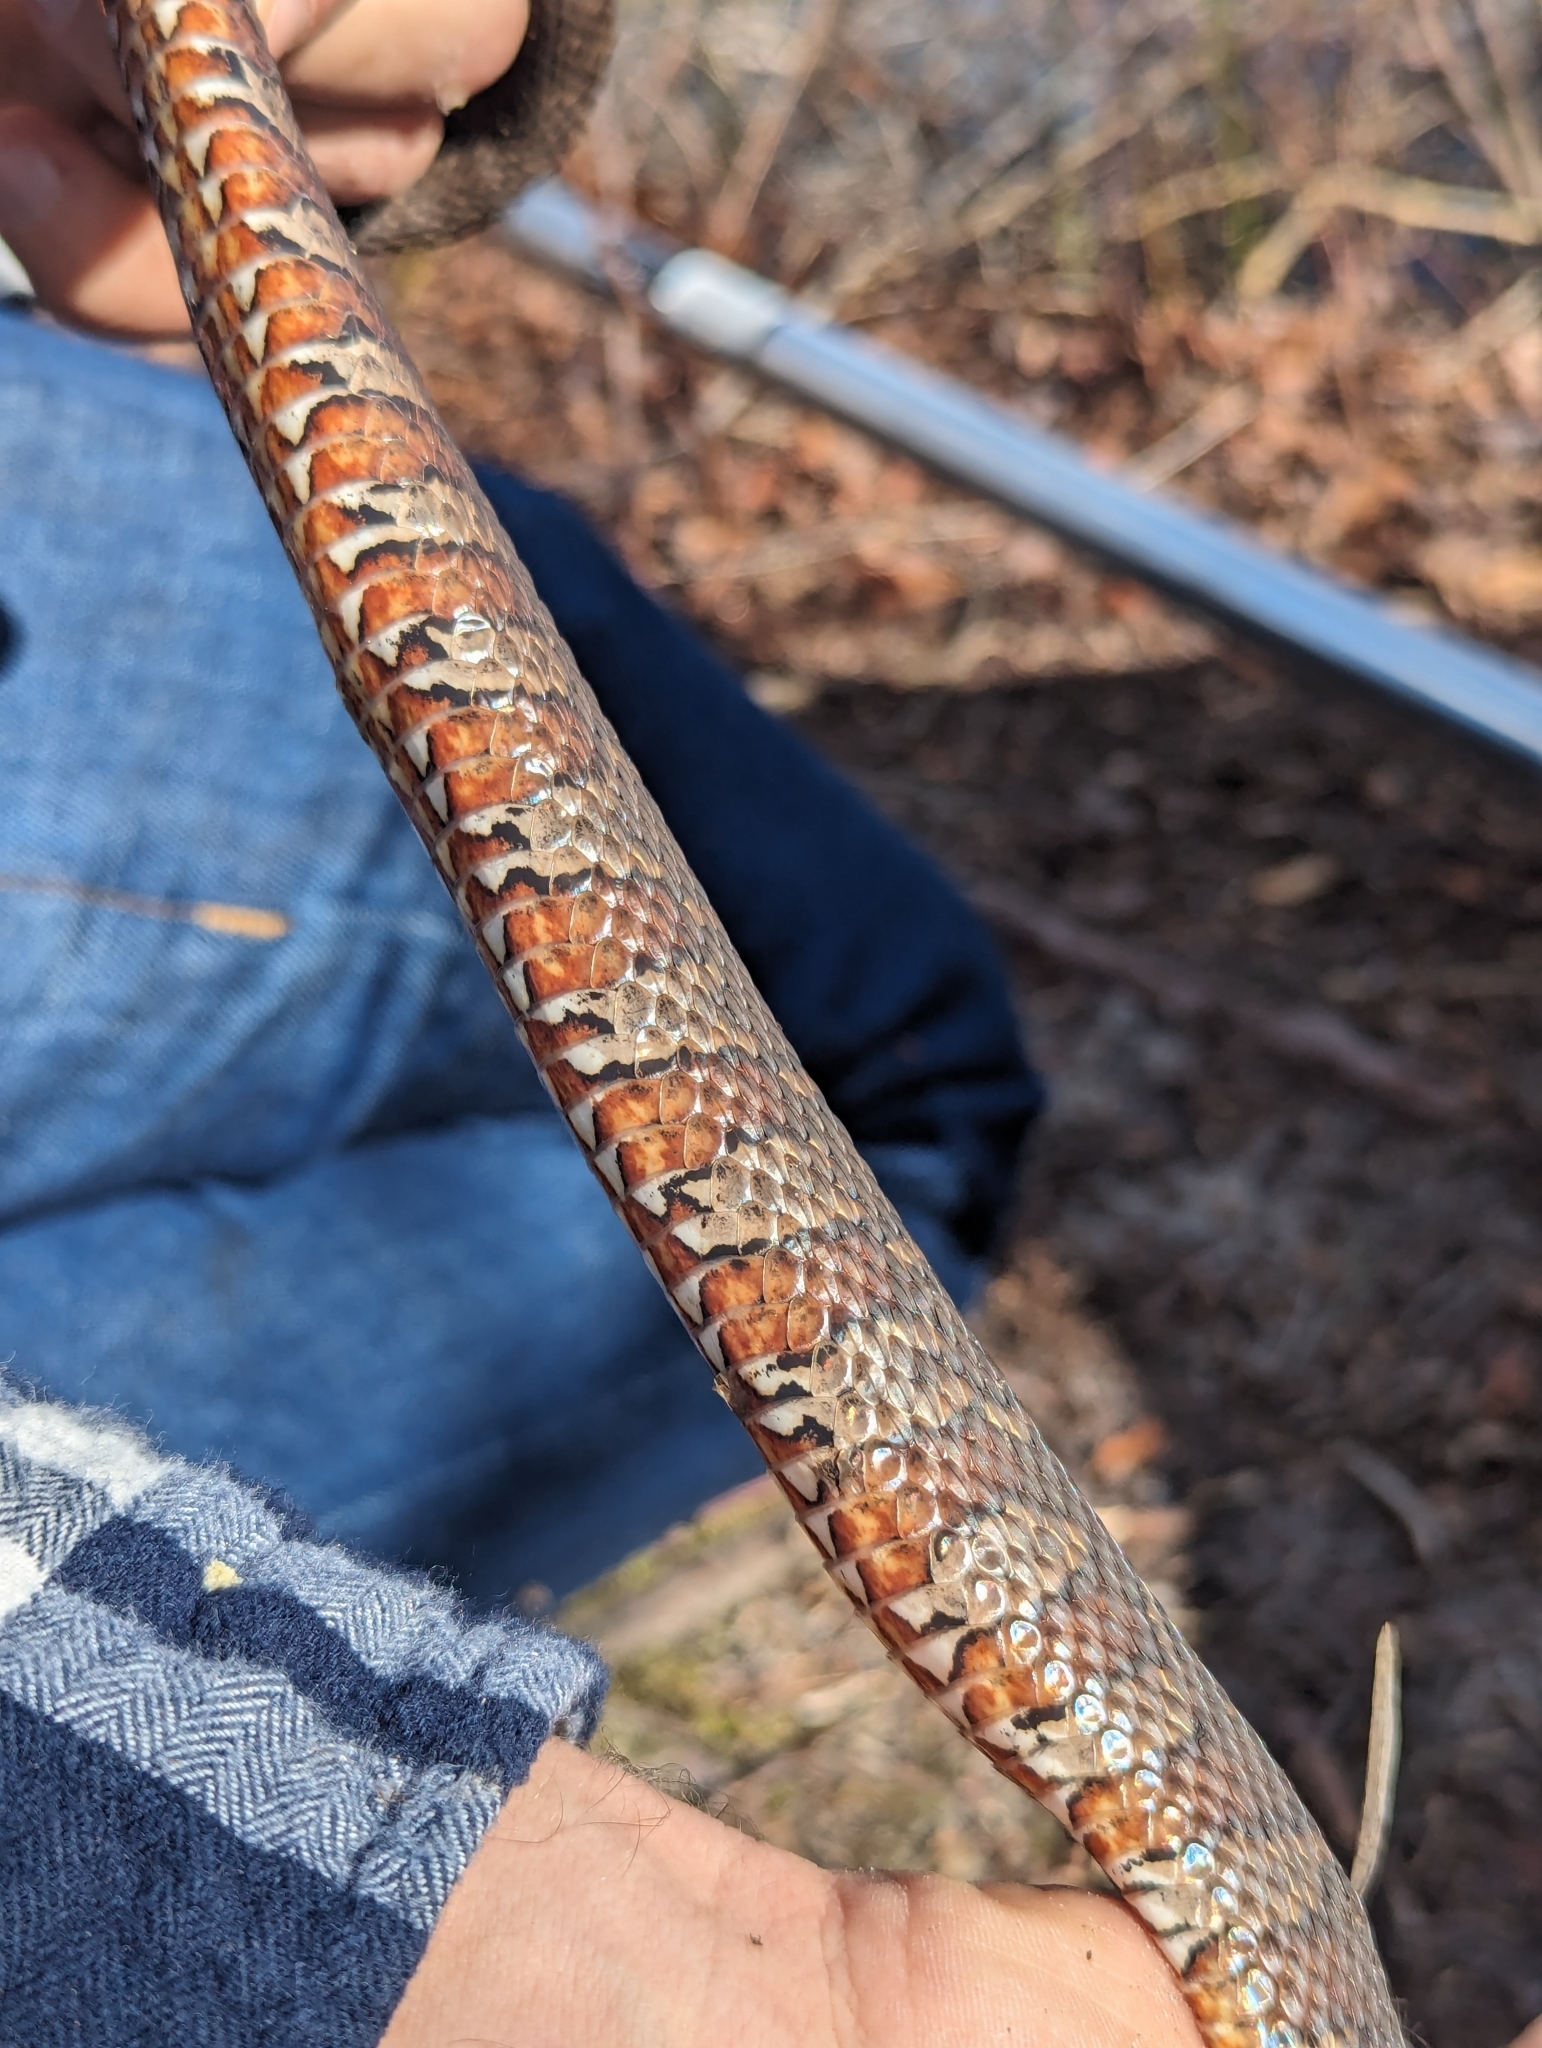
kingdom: Animalia
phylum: Chordata
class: Squamata
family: Colubridae
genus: Nerodia
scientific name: Nerodia sipedon
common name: Northern water snake
